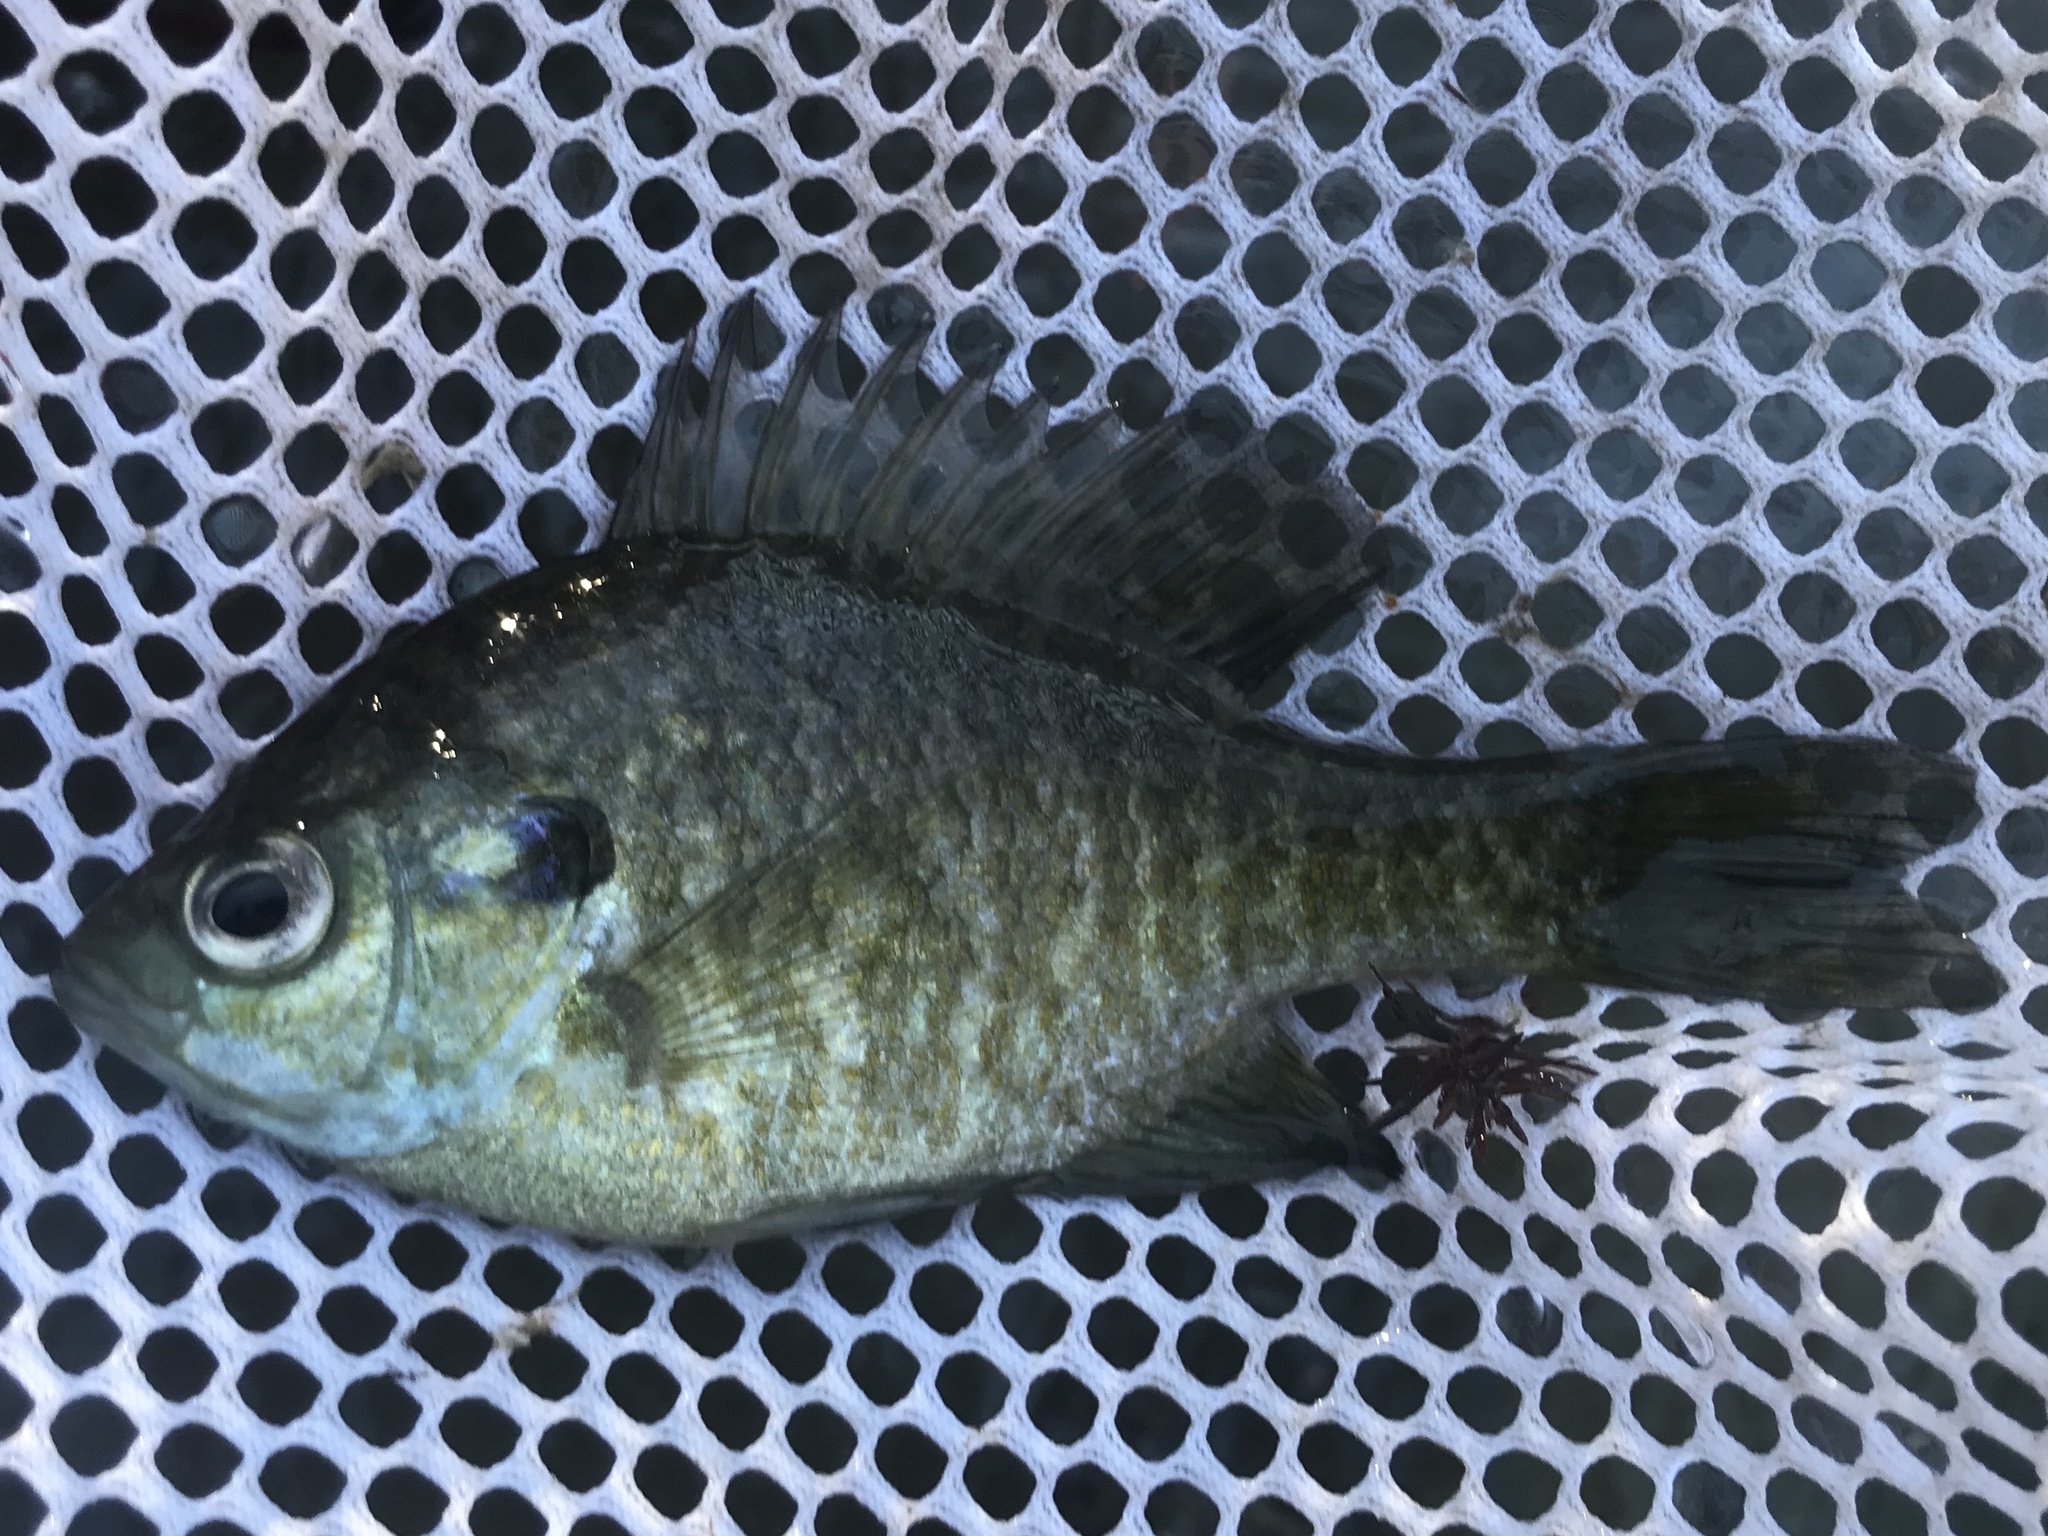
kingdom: Animalia
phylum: Chordata
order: Perciformes
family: Centrarchidae
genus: Lepomis
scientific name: Lepomis macrochirus
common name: Bluegill
